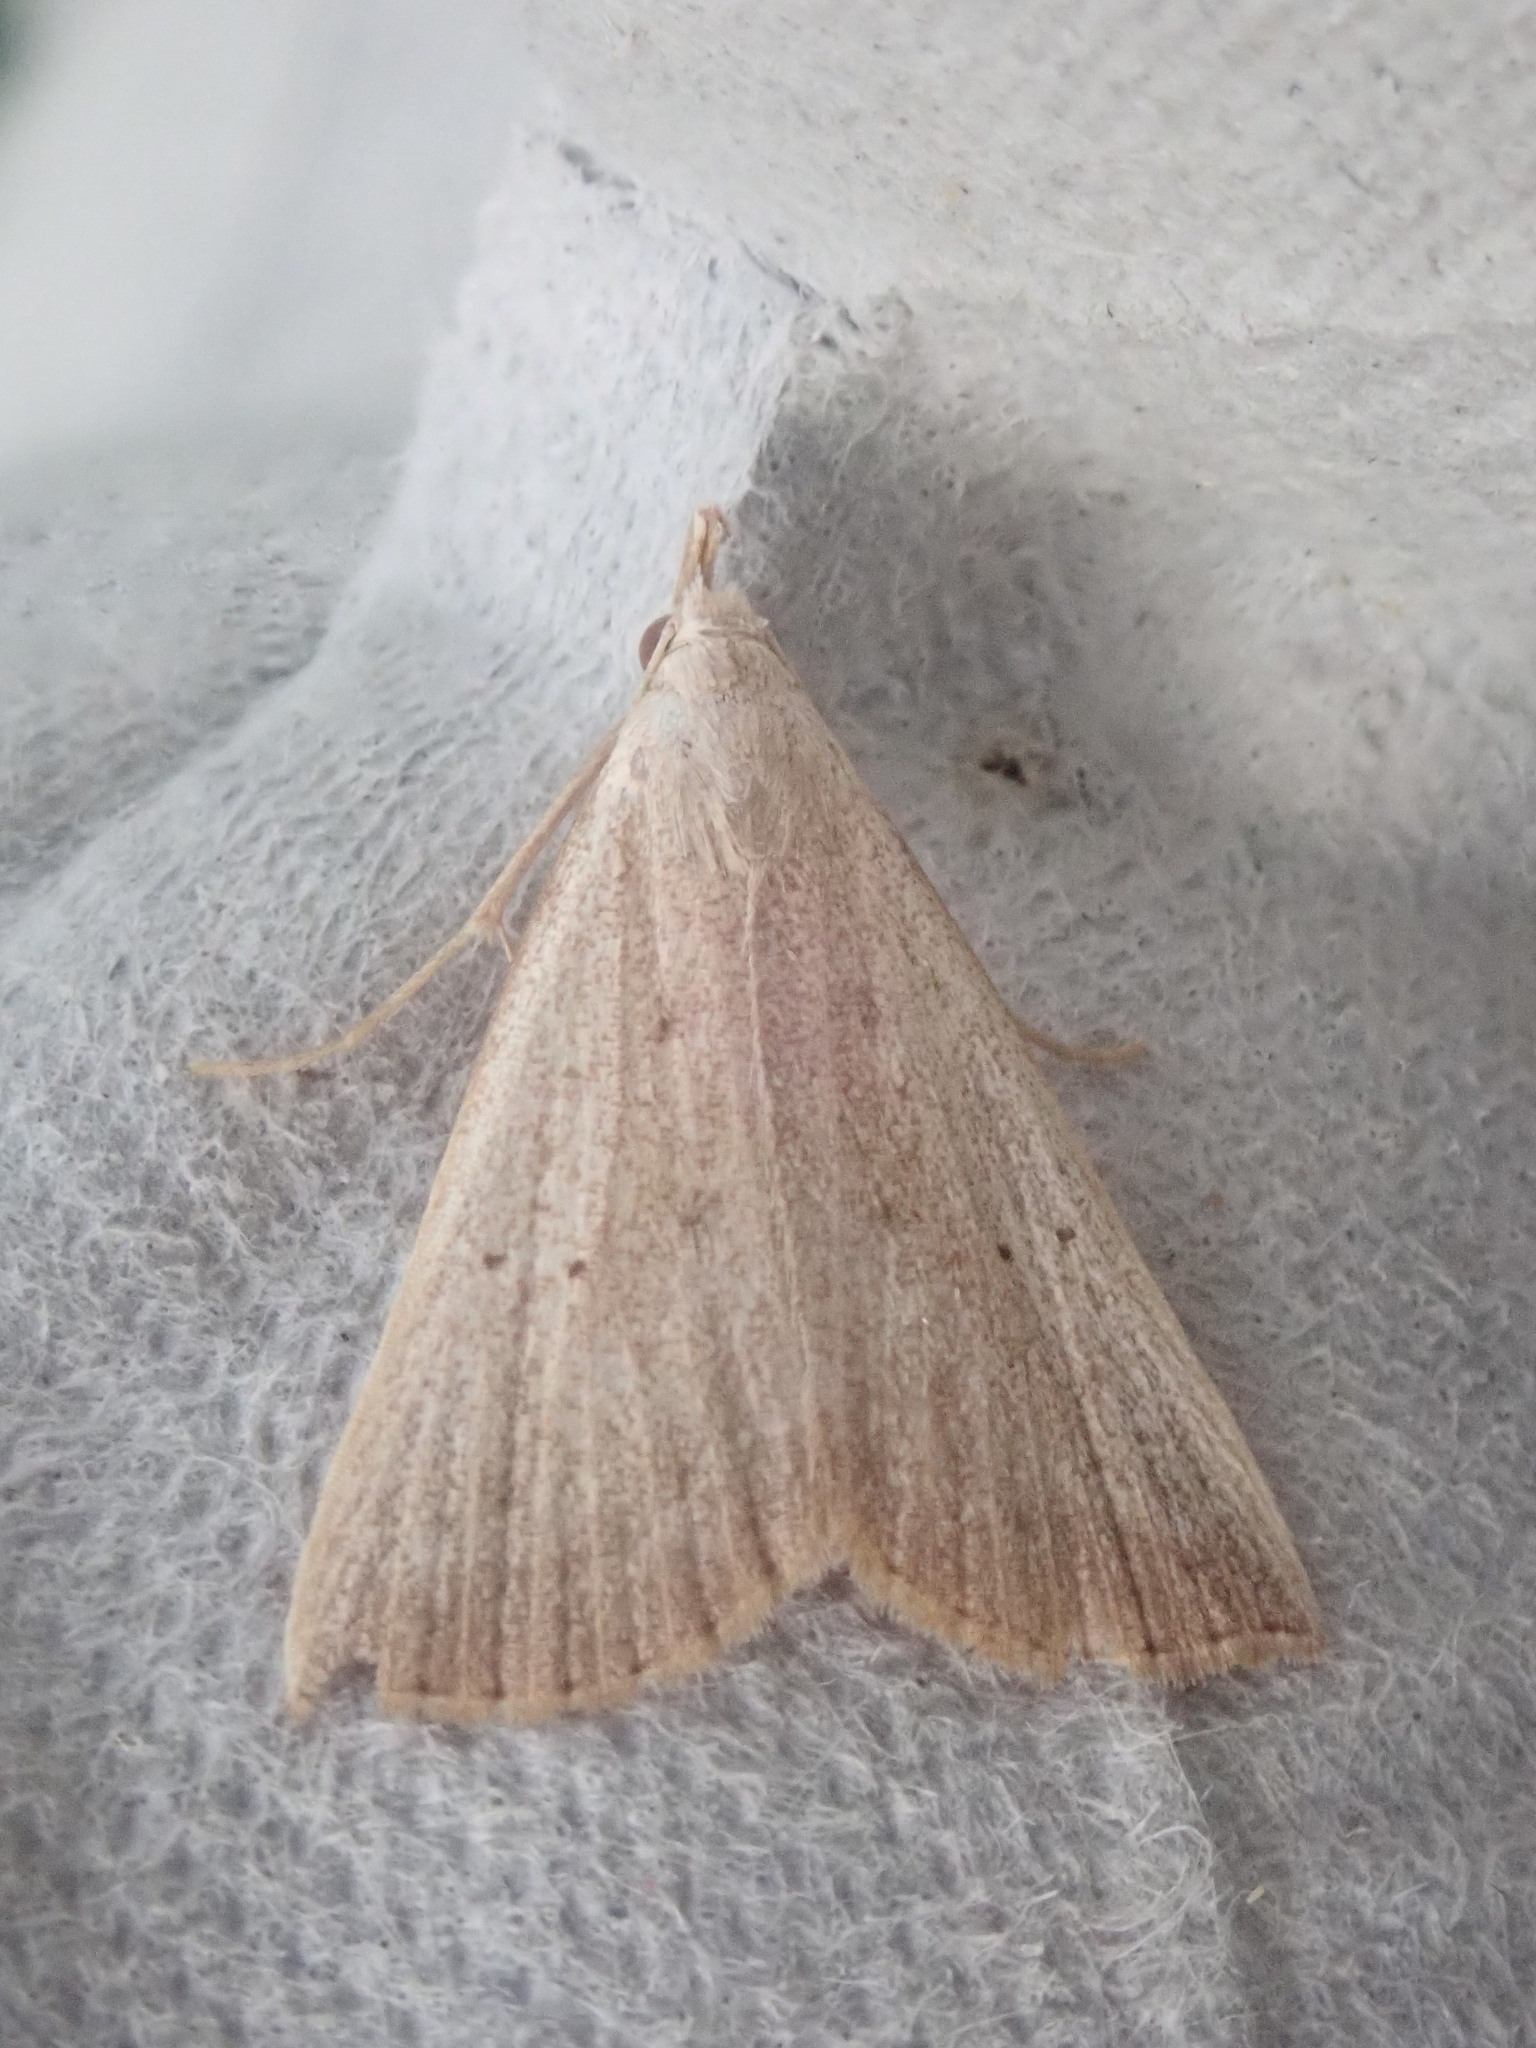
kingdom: Animalia
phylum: Arthropoda
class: Insecta
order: Lepidoptera
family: Erebidae
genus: Macrochilo
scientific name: Macrochilo louisiana
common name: Louisiana macrochilo
